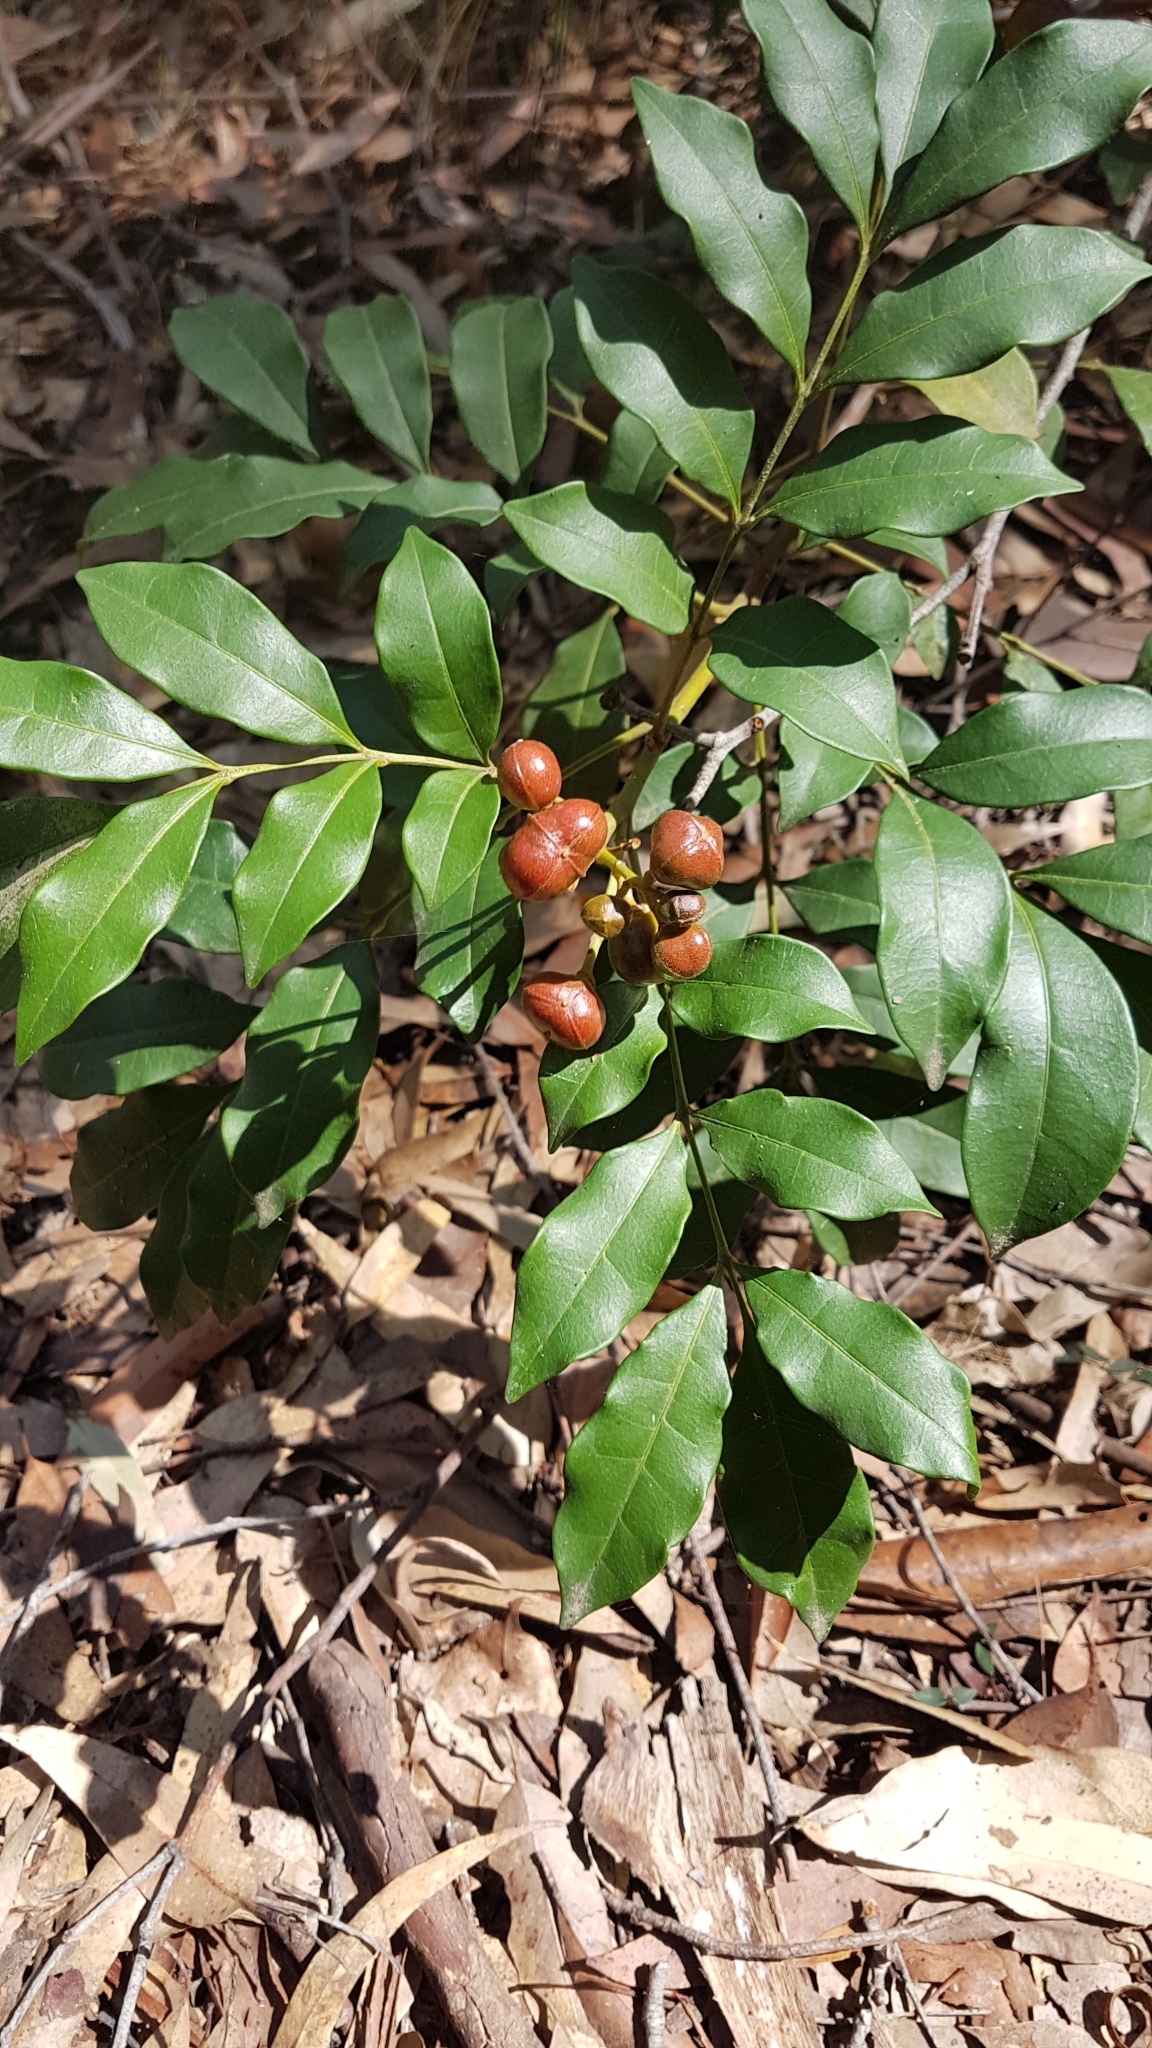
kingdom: Plantae
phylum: Tracheophyta
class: Magnoliopsida
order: Sapindales
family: Meliaceae
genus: Synoum
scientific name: Synoum glandulosum
